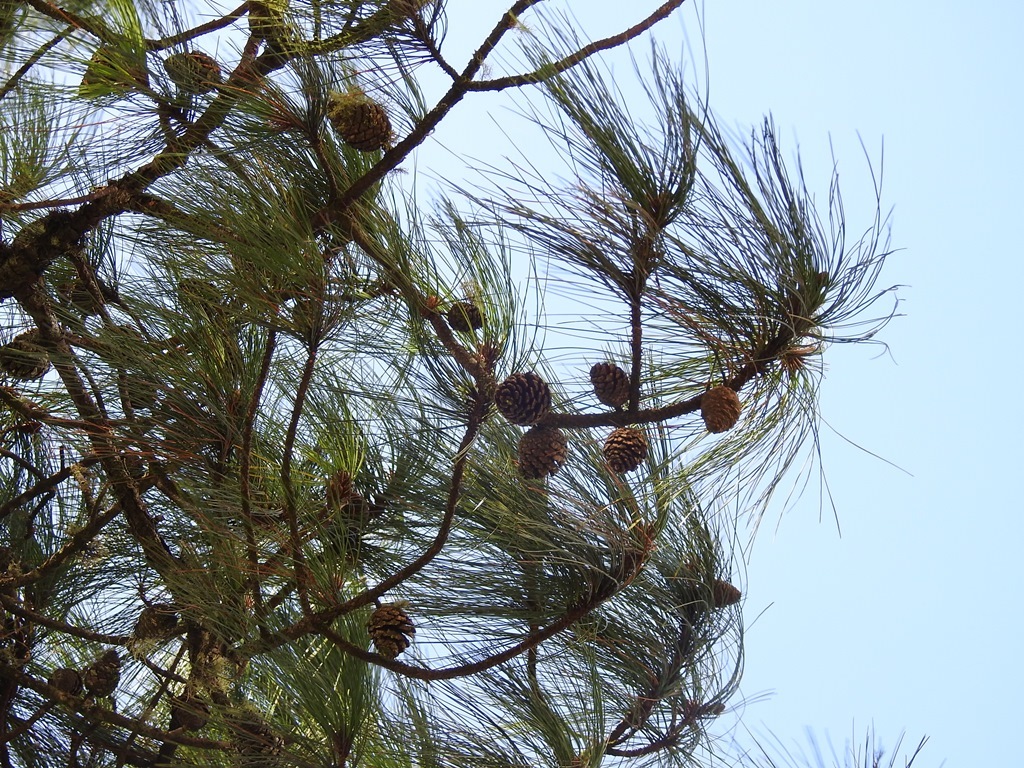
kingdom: Plantae
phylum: Tracheophyta
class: Pinopsida
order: Pinales
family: Pinaceae
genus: Pinus
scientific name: Pinus oocarpa
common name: Egg-cone pine
